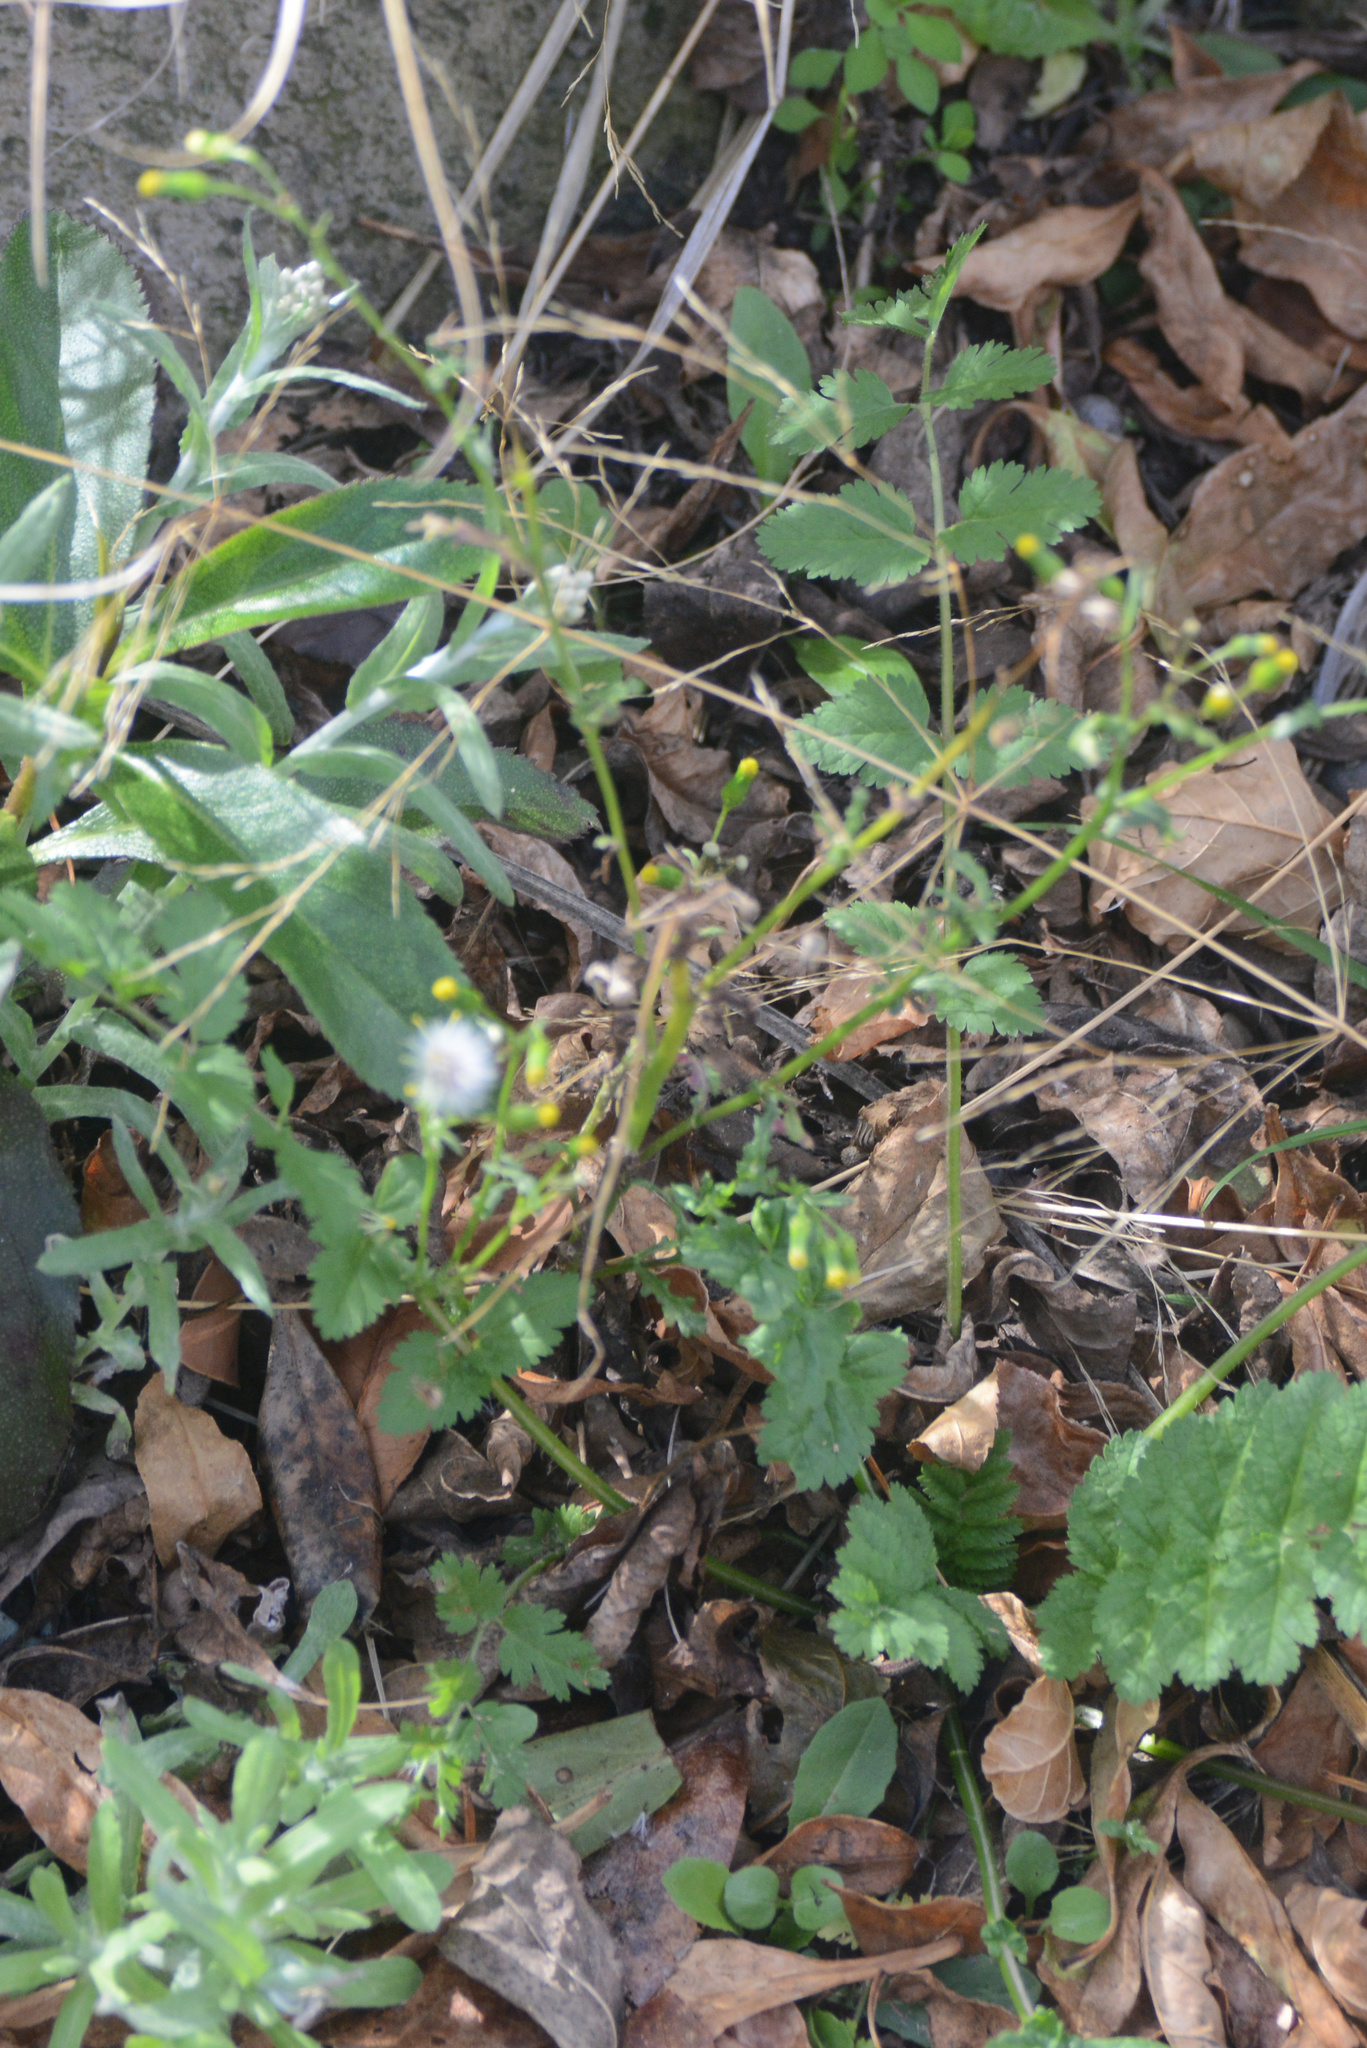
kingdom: Plantae
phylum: Tracheophyta
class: Magnoliopsida
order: Asterales
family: Asteraceae
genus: Senecio
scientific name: Senecio vulgaris
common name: Old-man-in-the-spring
